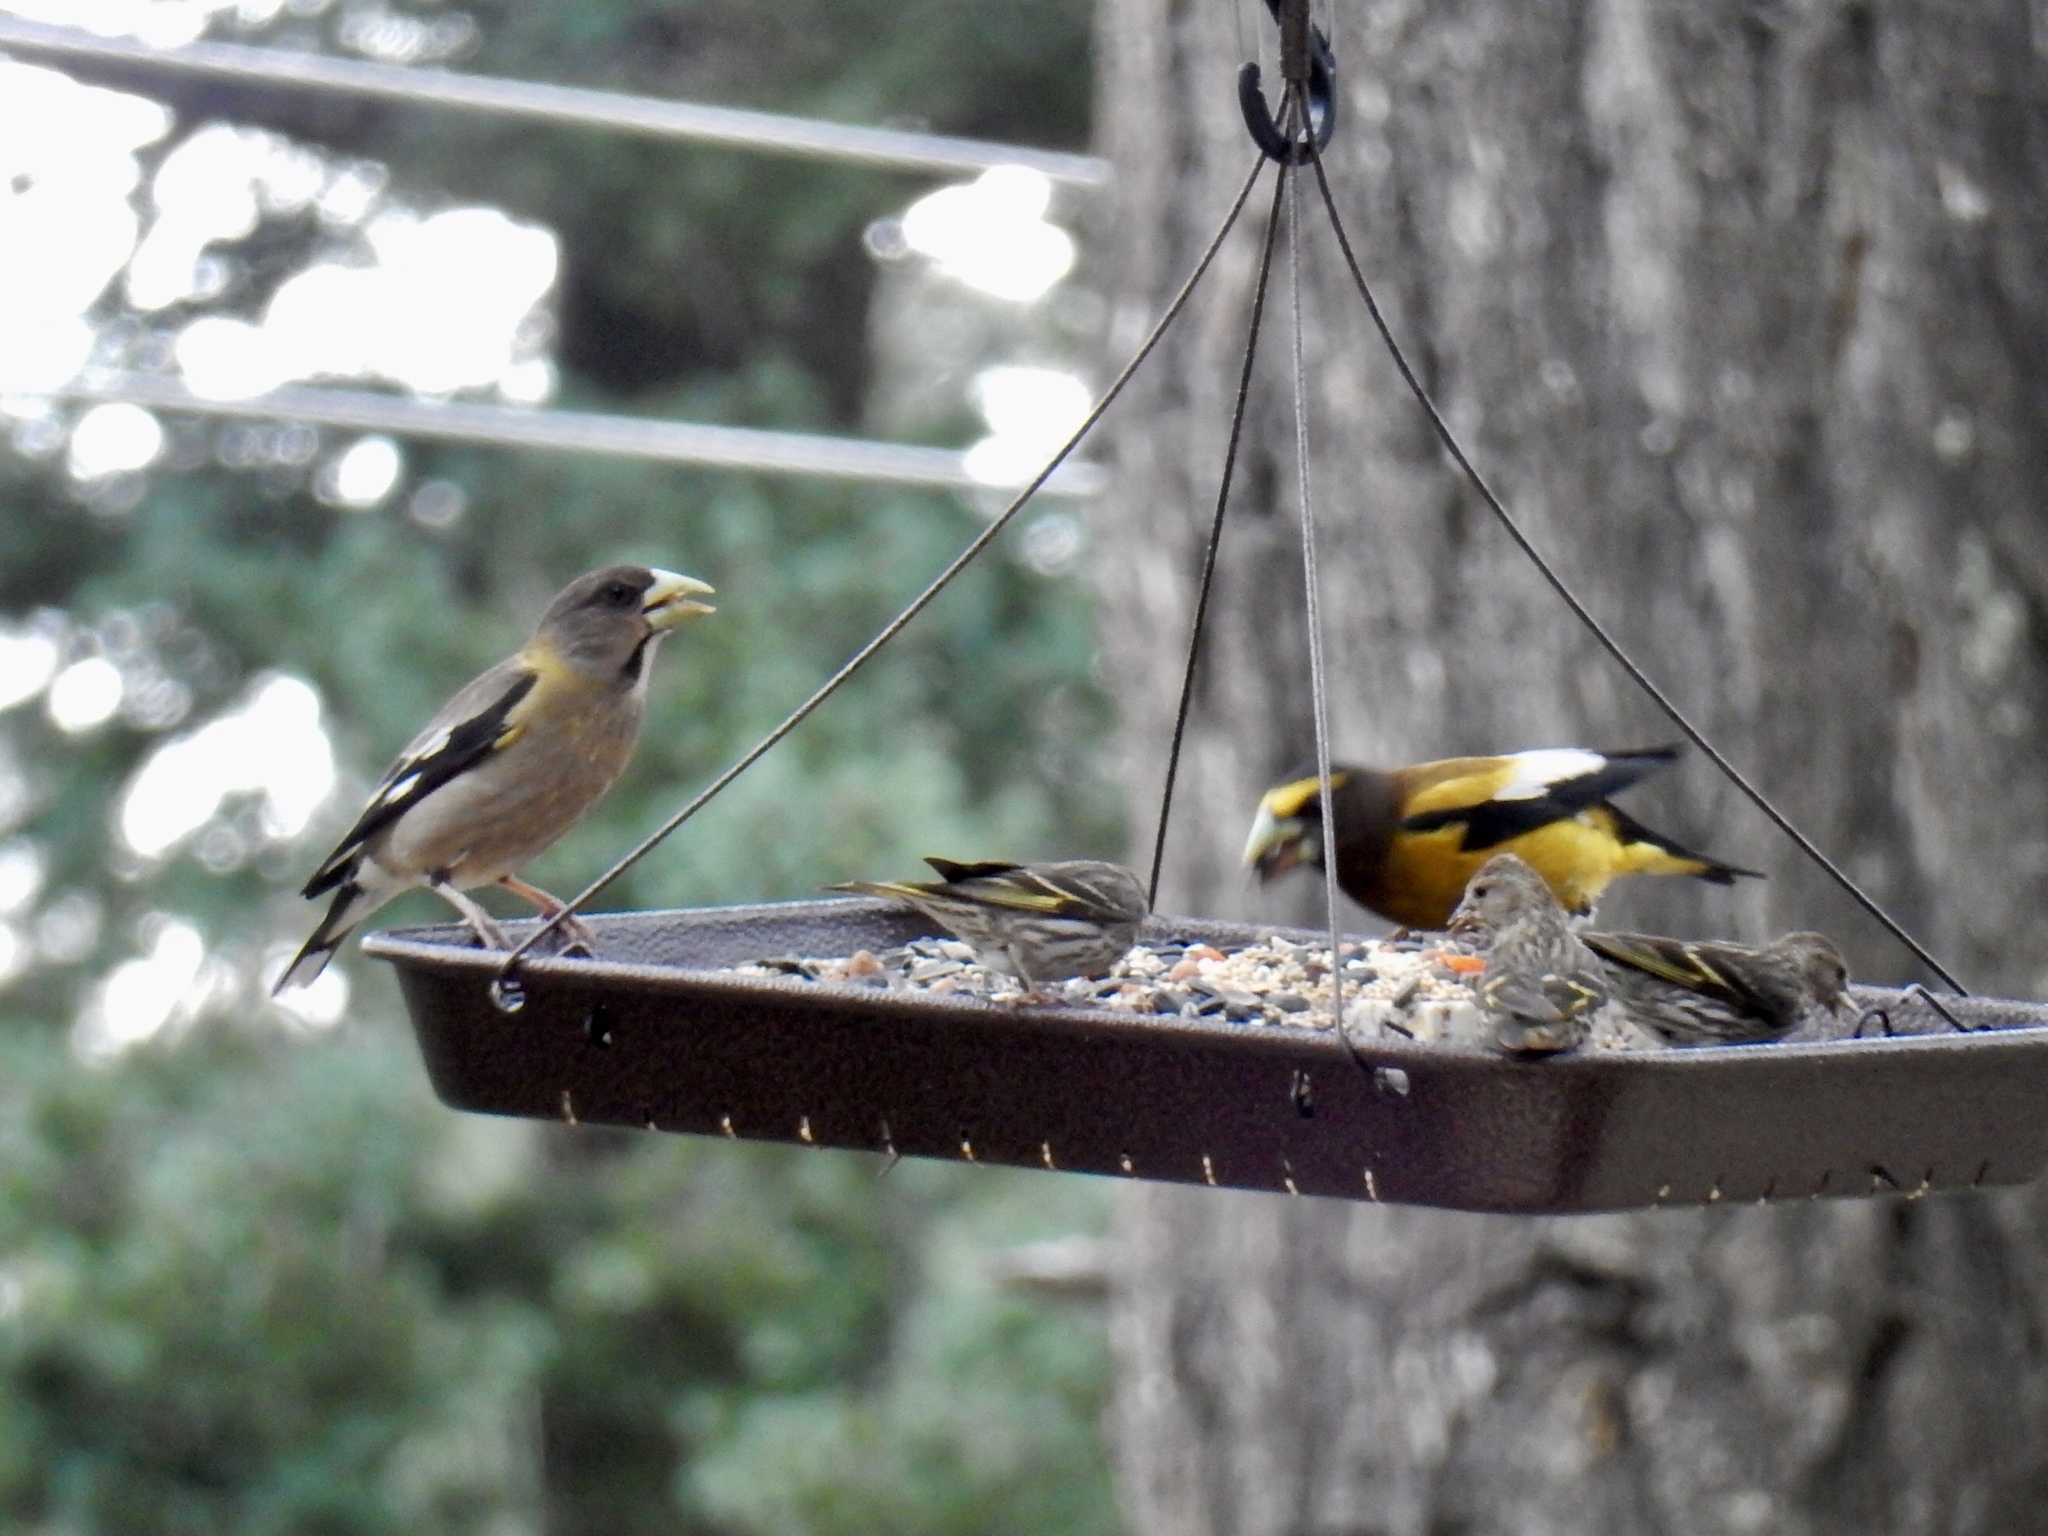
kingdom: Animalia
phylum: Chordata
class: Aves
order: Passeriformes
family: Fringillidae
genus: Hesperiphona
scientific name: Hesperiphona vespertina
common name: Evening grosbeak
